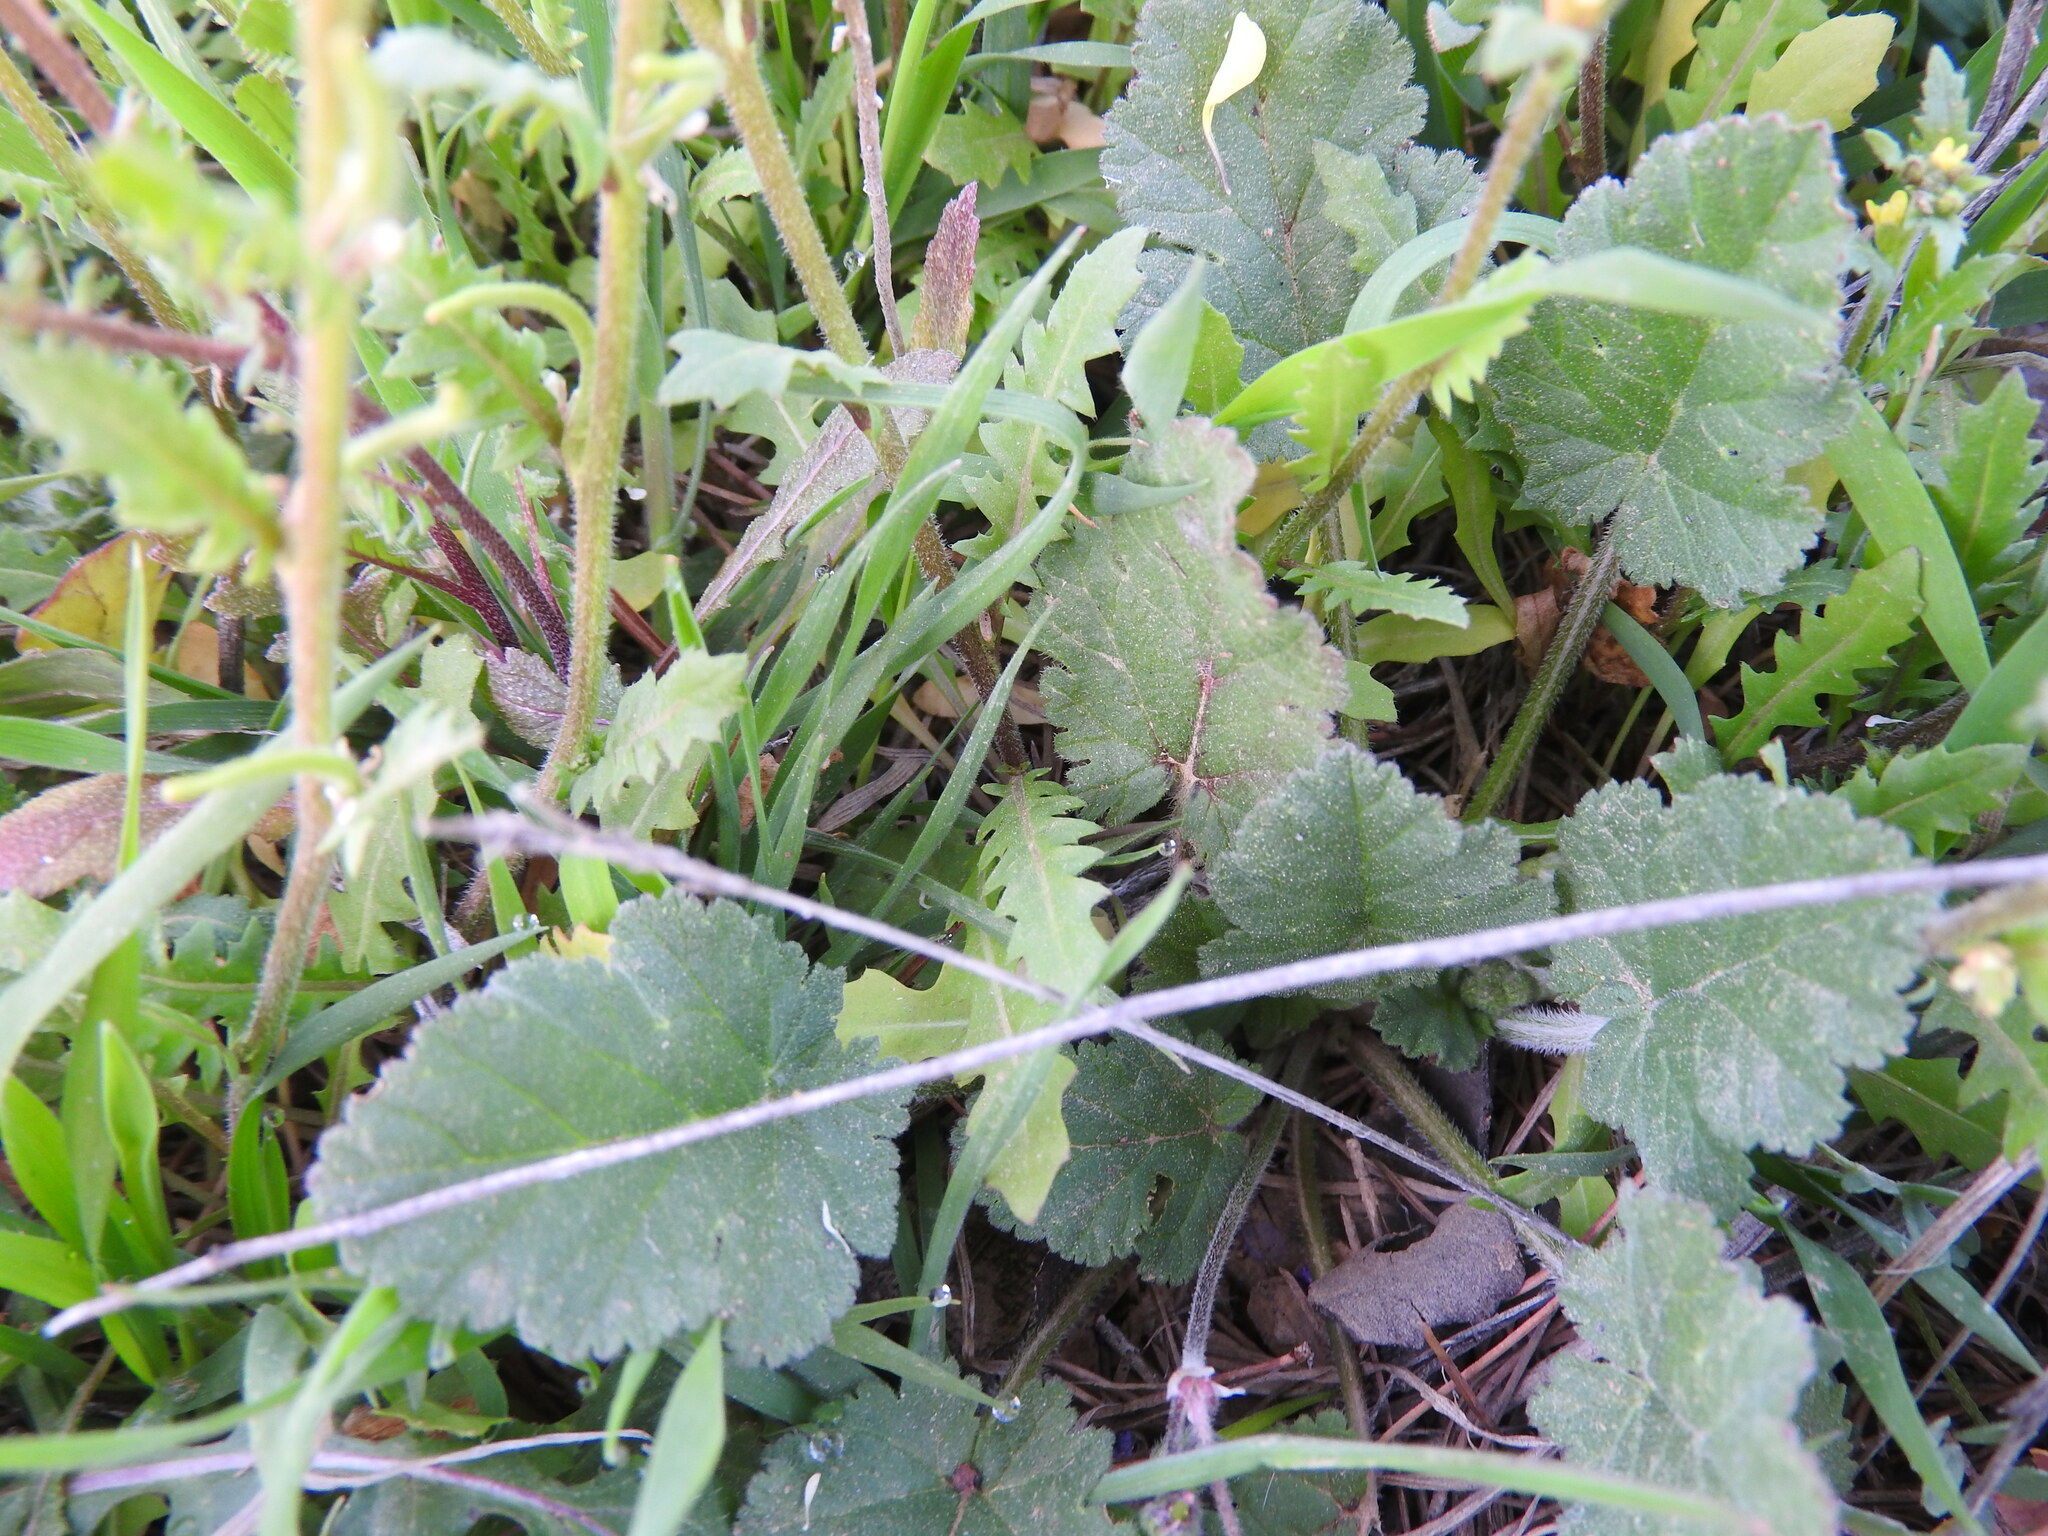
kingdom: Plantae
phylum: Tracheophyta
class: Magnoliopsida
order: Brassicales
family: Brassicaceae
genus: Sisymbrium
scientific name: Sisymbrium runcinatum
